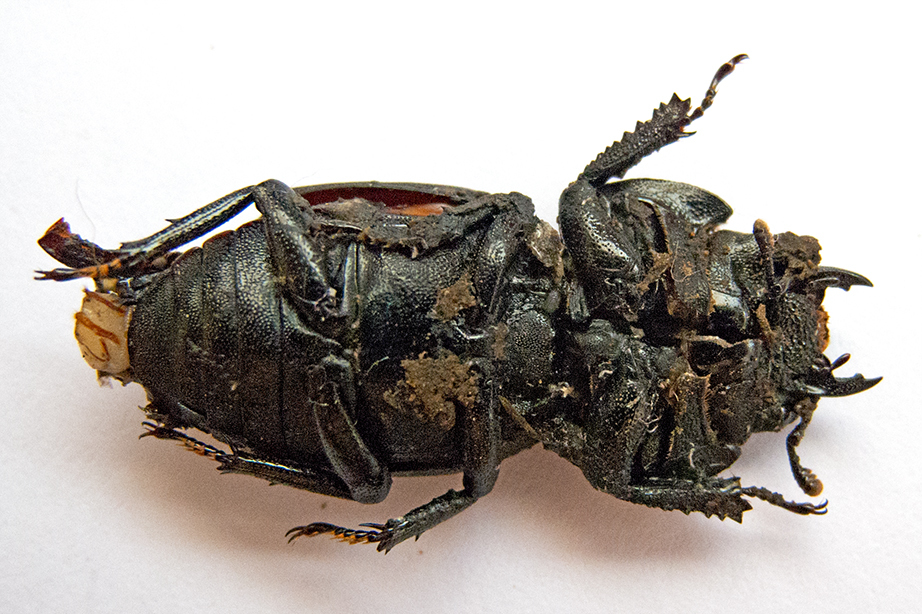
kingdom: Animalia
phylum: Arthropoda
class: Insecta
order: Coleoptera
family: Lucanidae
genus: Dorcus
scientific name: Dorcus parallelipipedus
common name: Lesser stag beetle
